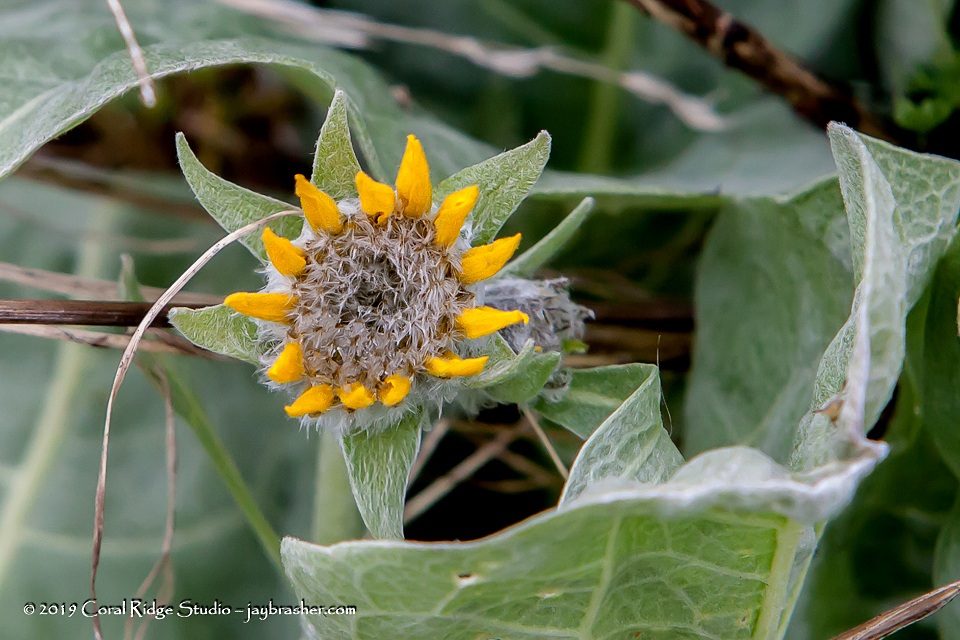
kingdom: Plantae
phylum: Tracheophyta
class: Magnoliopsida
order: Asterales
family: Asteraceae
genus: Wyethia
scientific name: Wyethia sagittata
